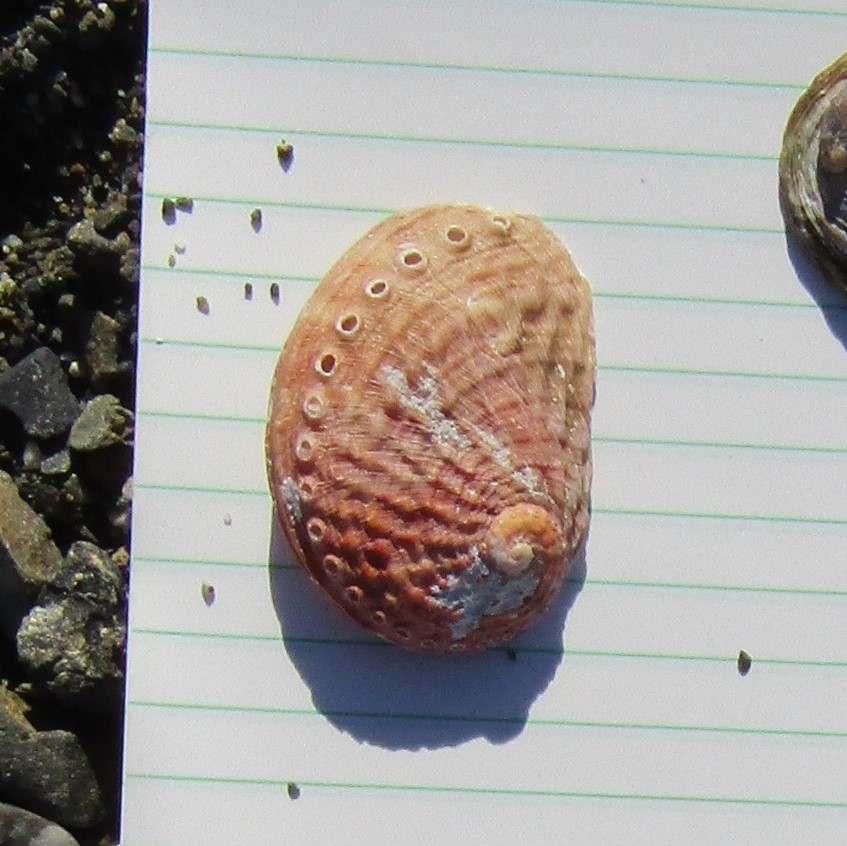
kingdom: Animalia
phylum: Mollusca
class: Gastropoda
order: Lepetellida
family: Haliotidae
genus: Haliotis
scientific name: Haliotis australis
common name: Silver abalone
